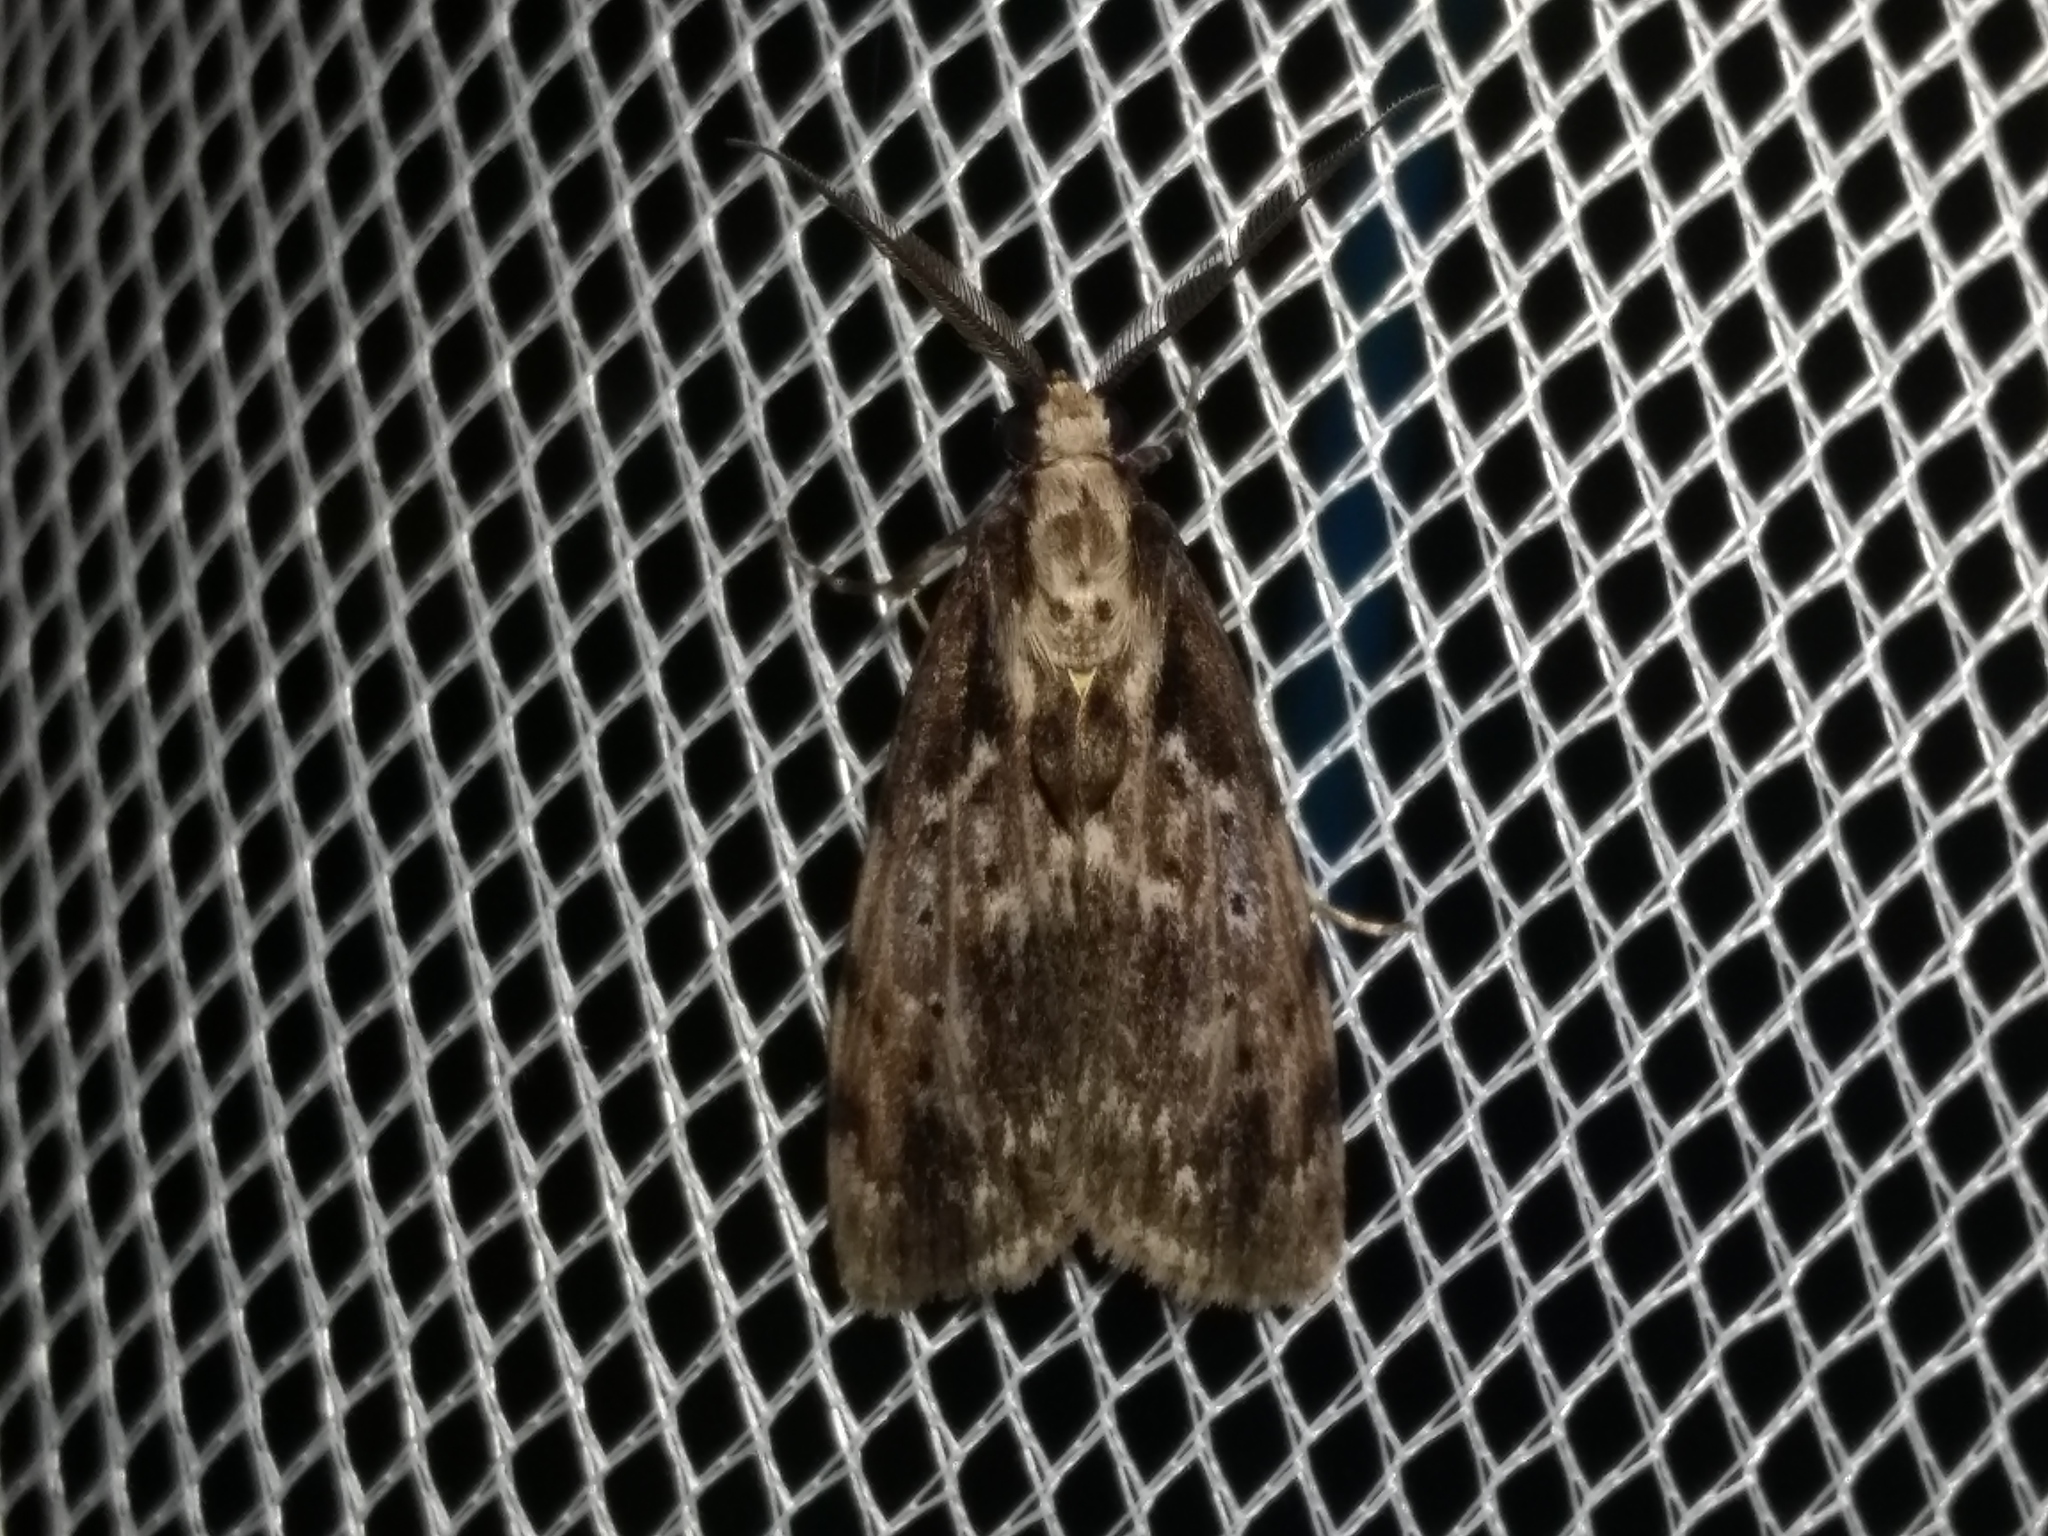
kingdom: Animalia
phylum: Arthropoda
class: Insecta
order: Lepidoptera
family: Erebidae
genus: Digama
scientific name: Digama Sommeria marmorea
